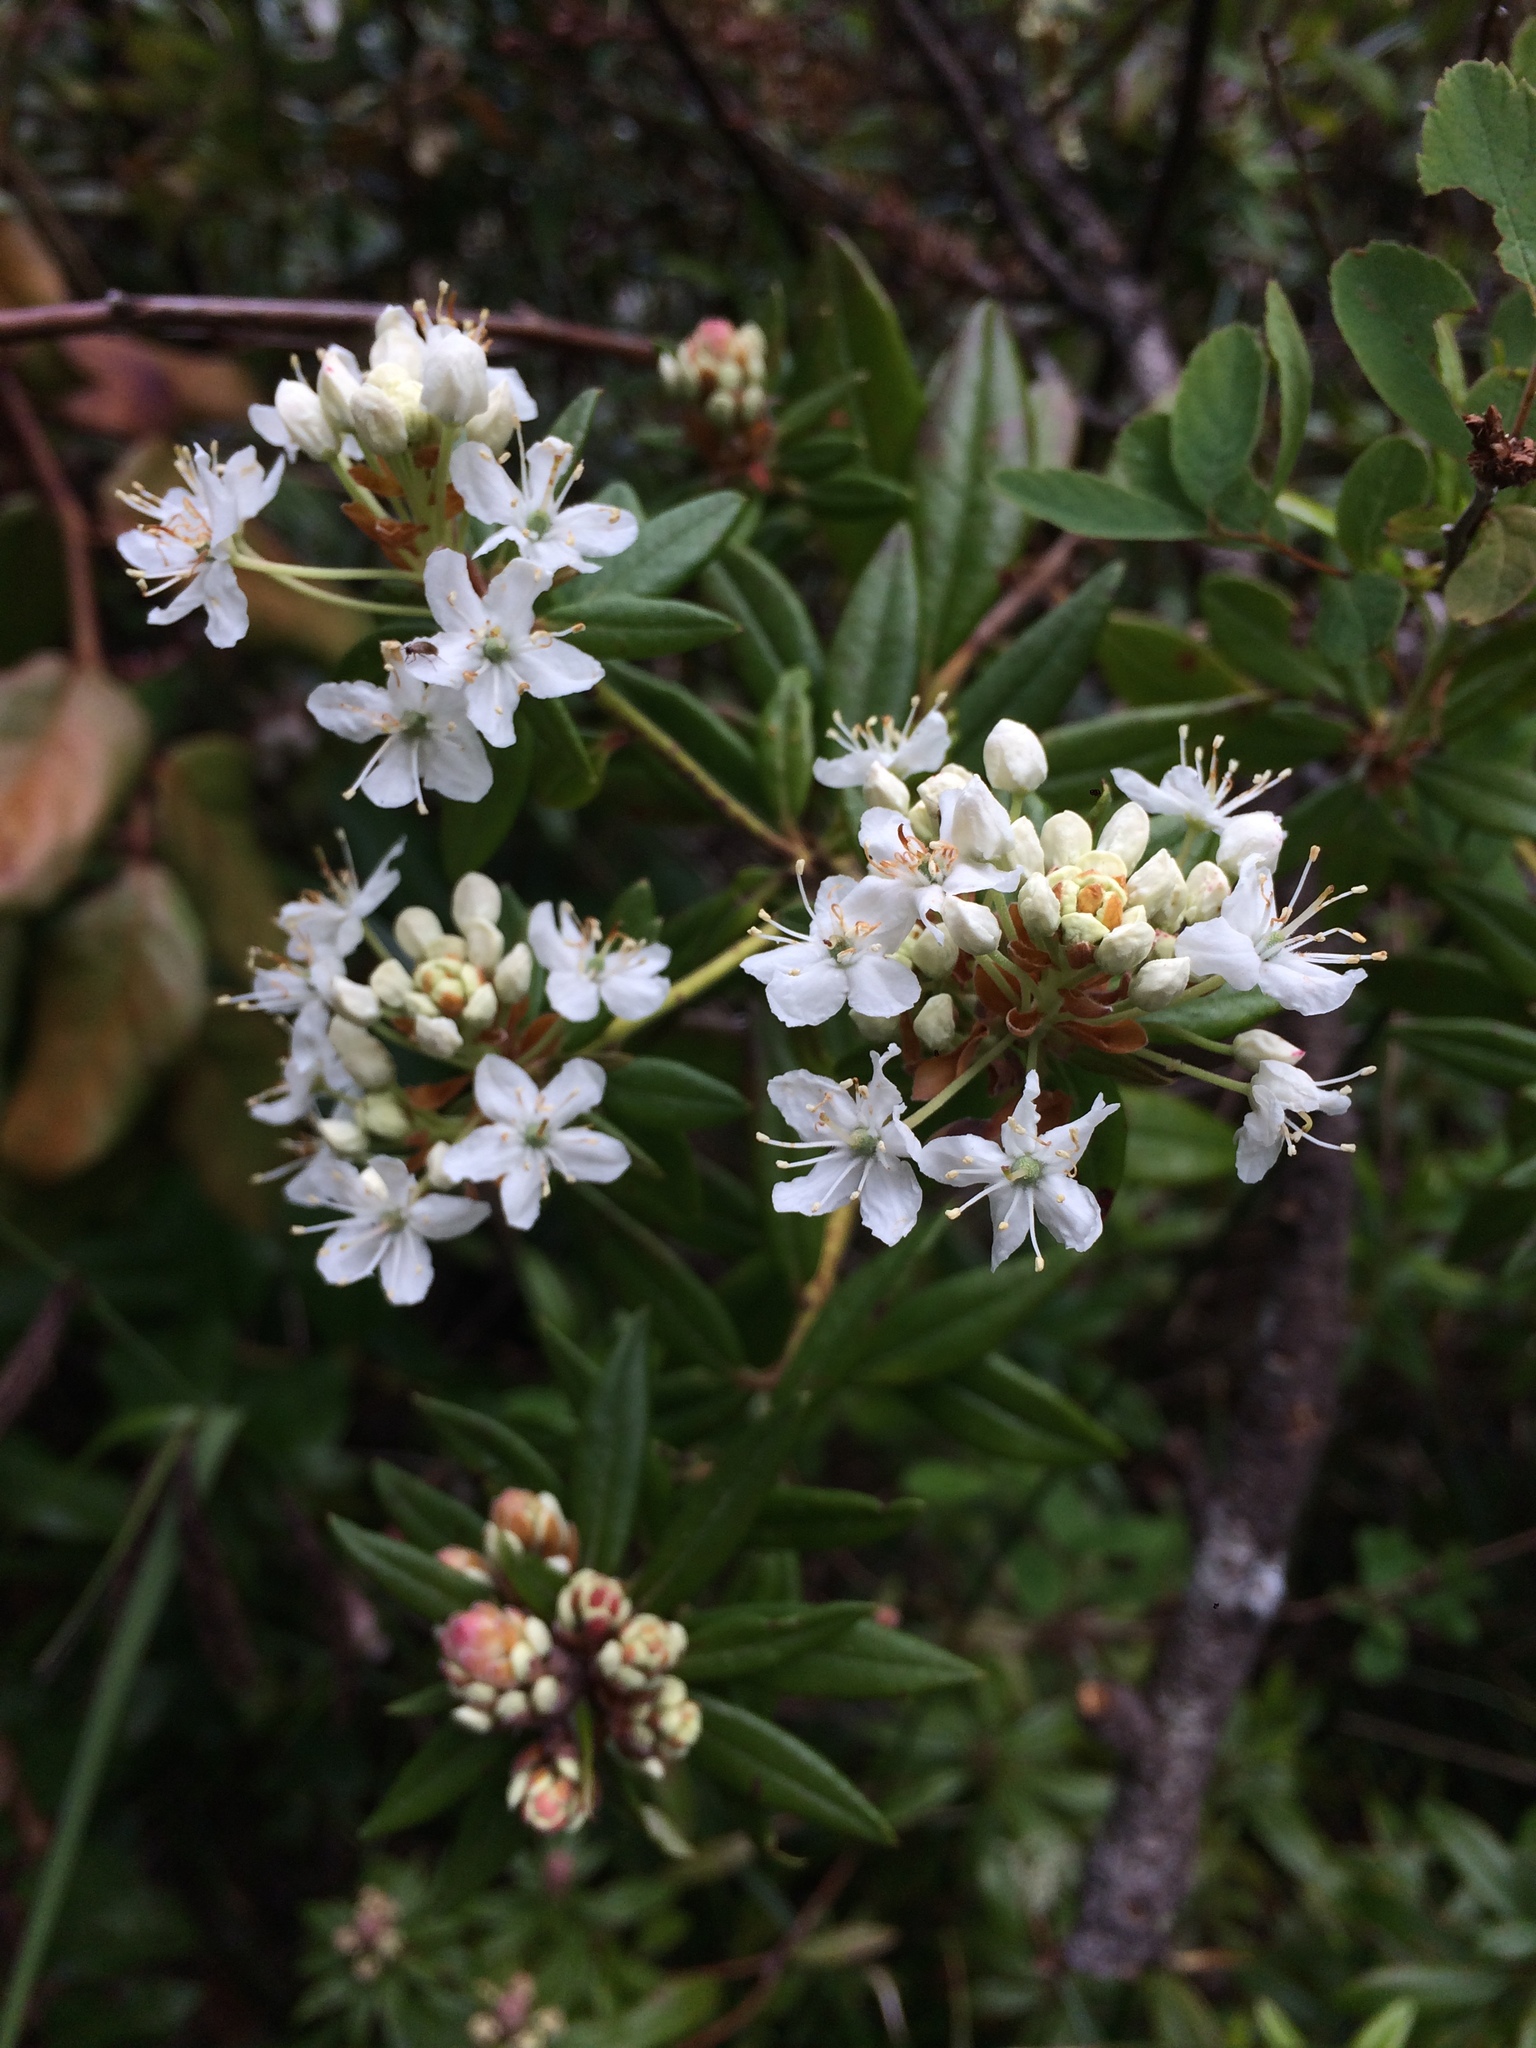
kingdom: Plantae
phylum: Tracheophyta
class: Magnoliopsida
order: Ericales
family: Ericaceae
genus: Rhododendron
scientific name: Rhododendron columbianum
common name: Western labrador tea
